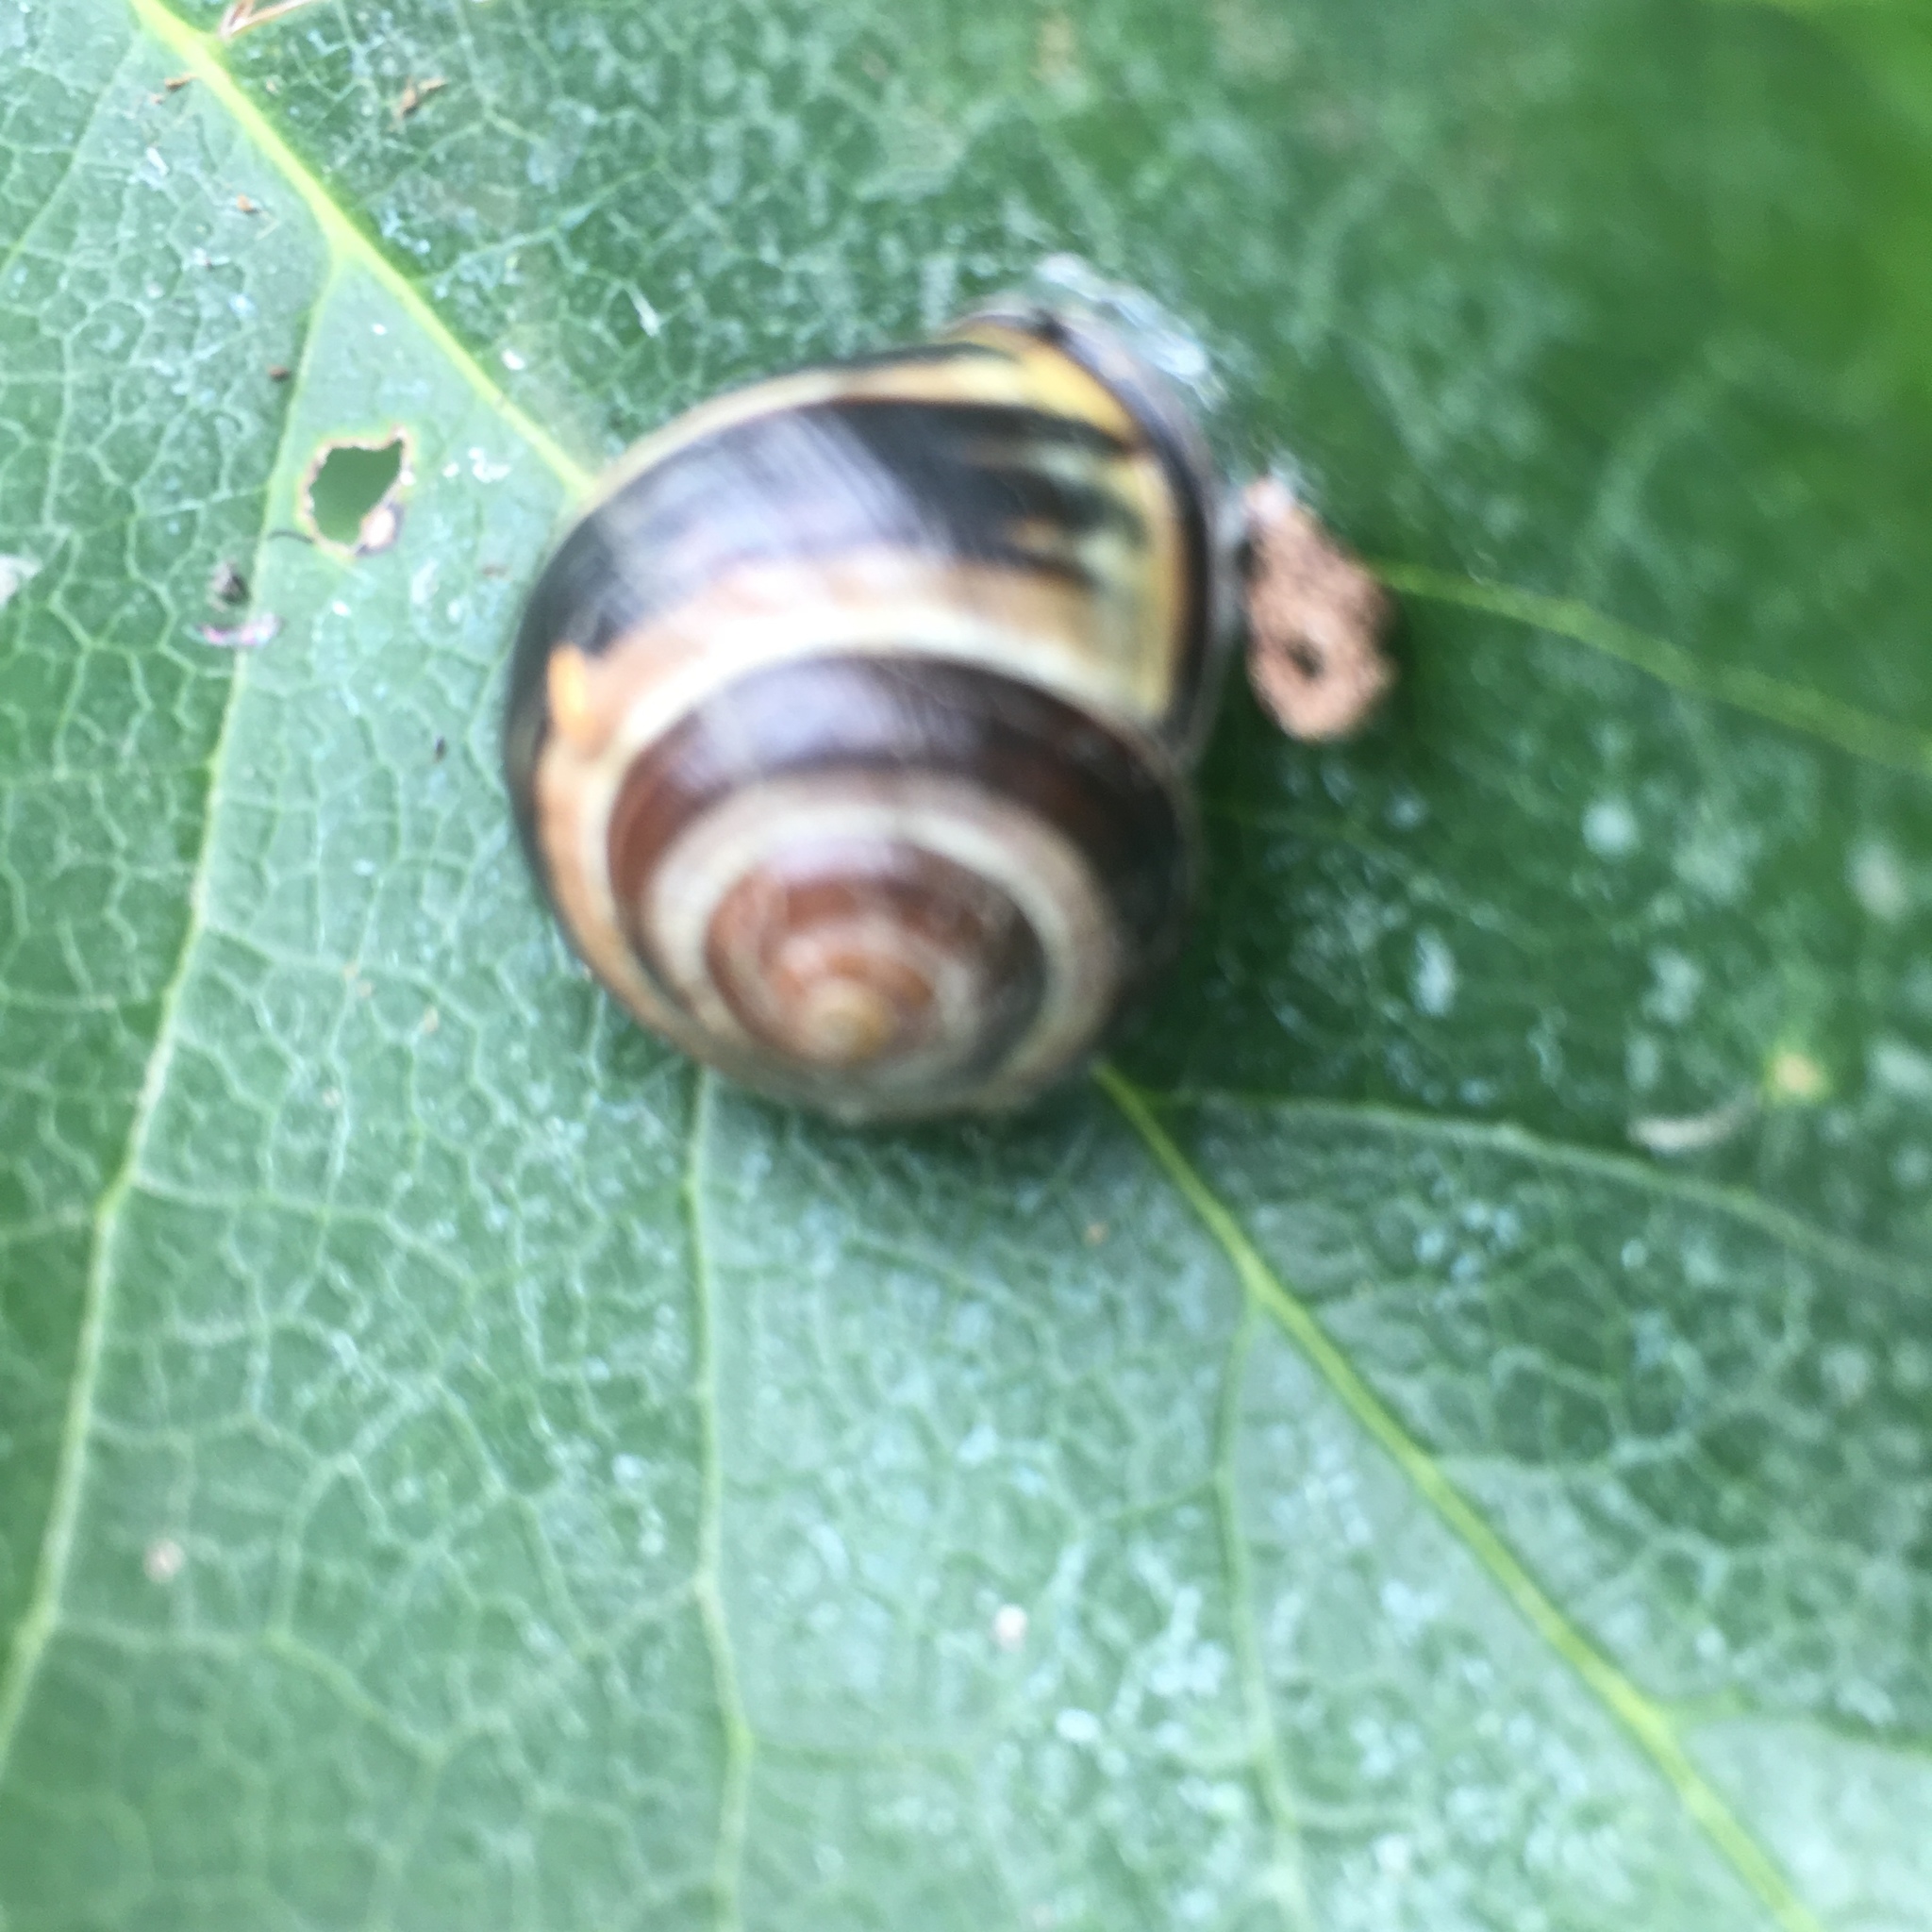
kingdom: Animalia
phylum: Mollusca
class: Gastropoda
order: Stylommatophora
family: Helicidae
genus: Cepaea
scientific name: Cepaea nemoralis
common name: Grovesnail
